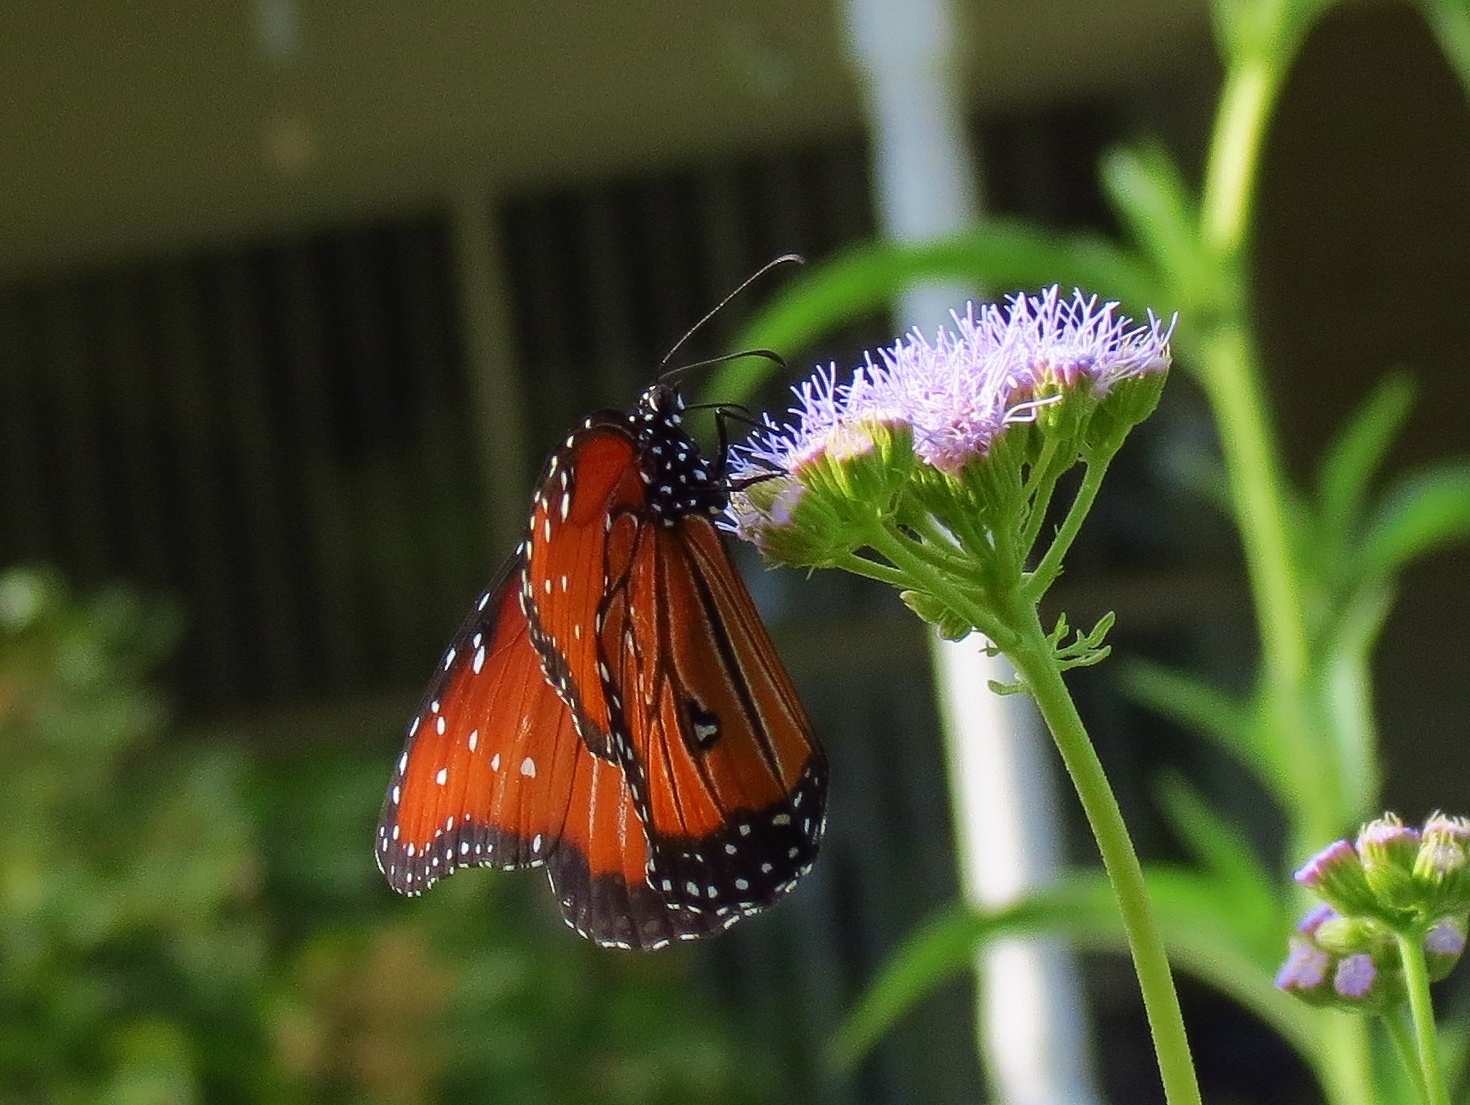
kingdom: Animalia
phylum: Arthropoda
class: Insecta
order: Lepidoptera
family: Nymphalidae
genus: Danaus
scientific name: Danaus gilippus
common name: Queen
